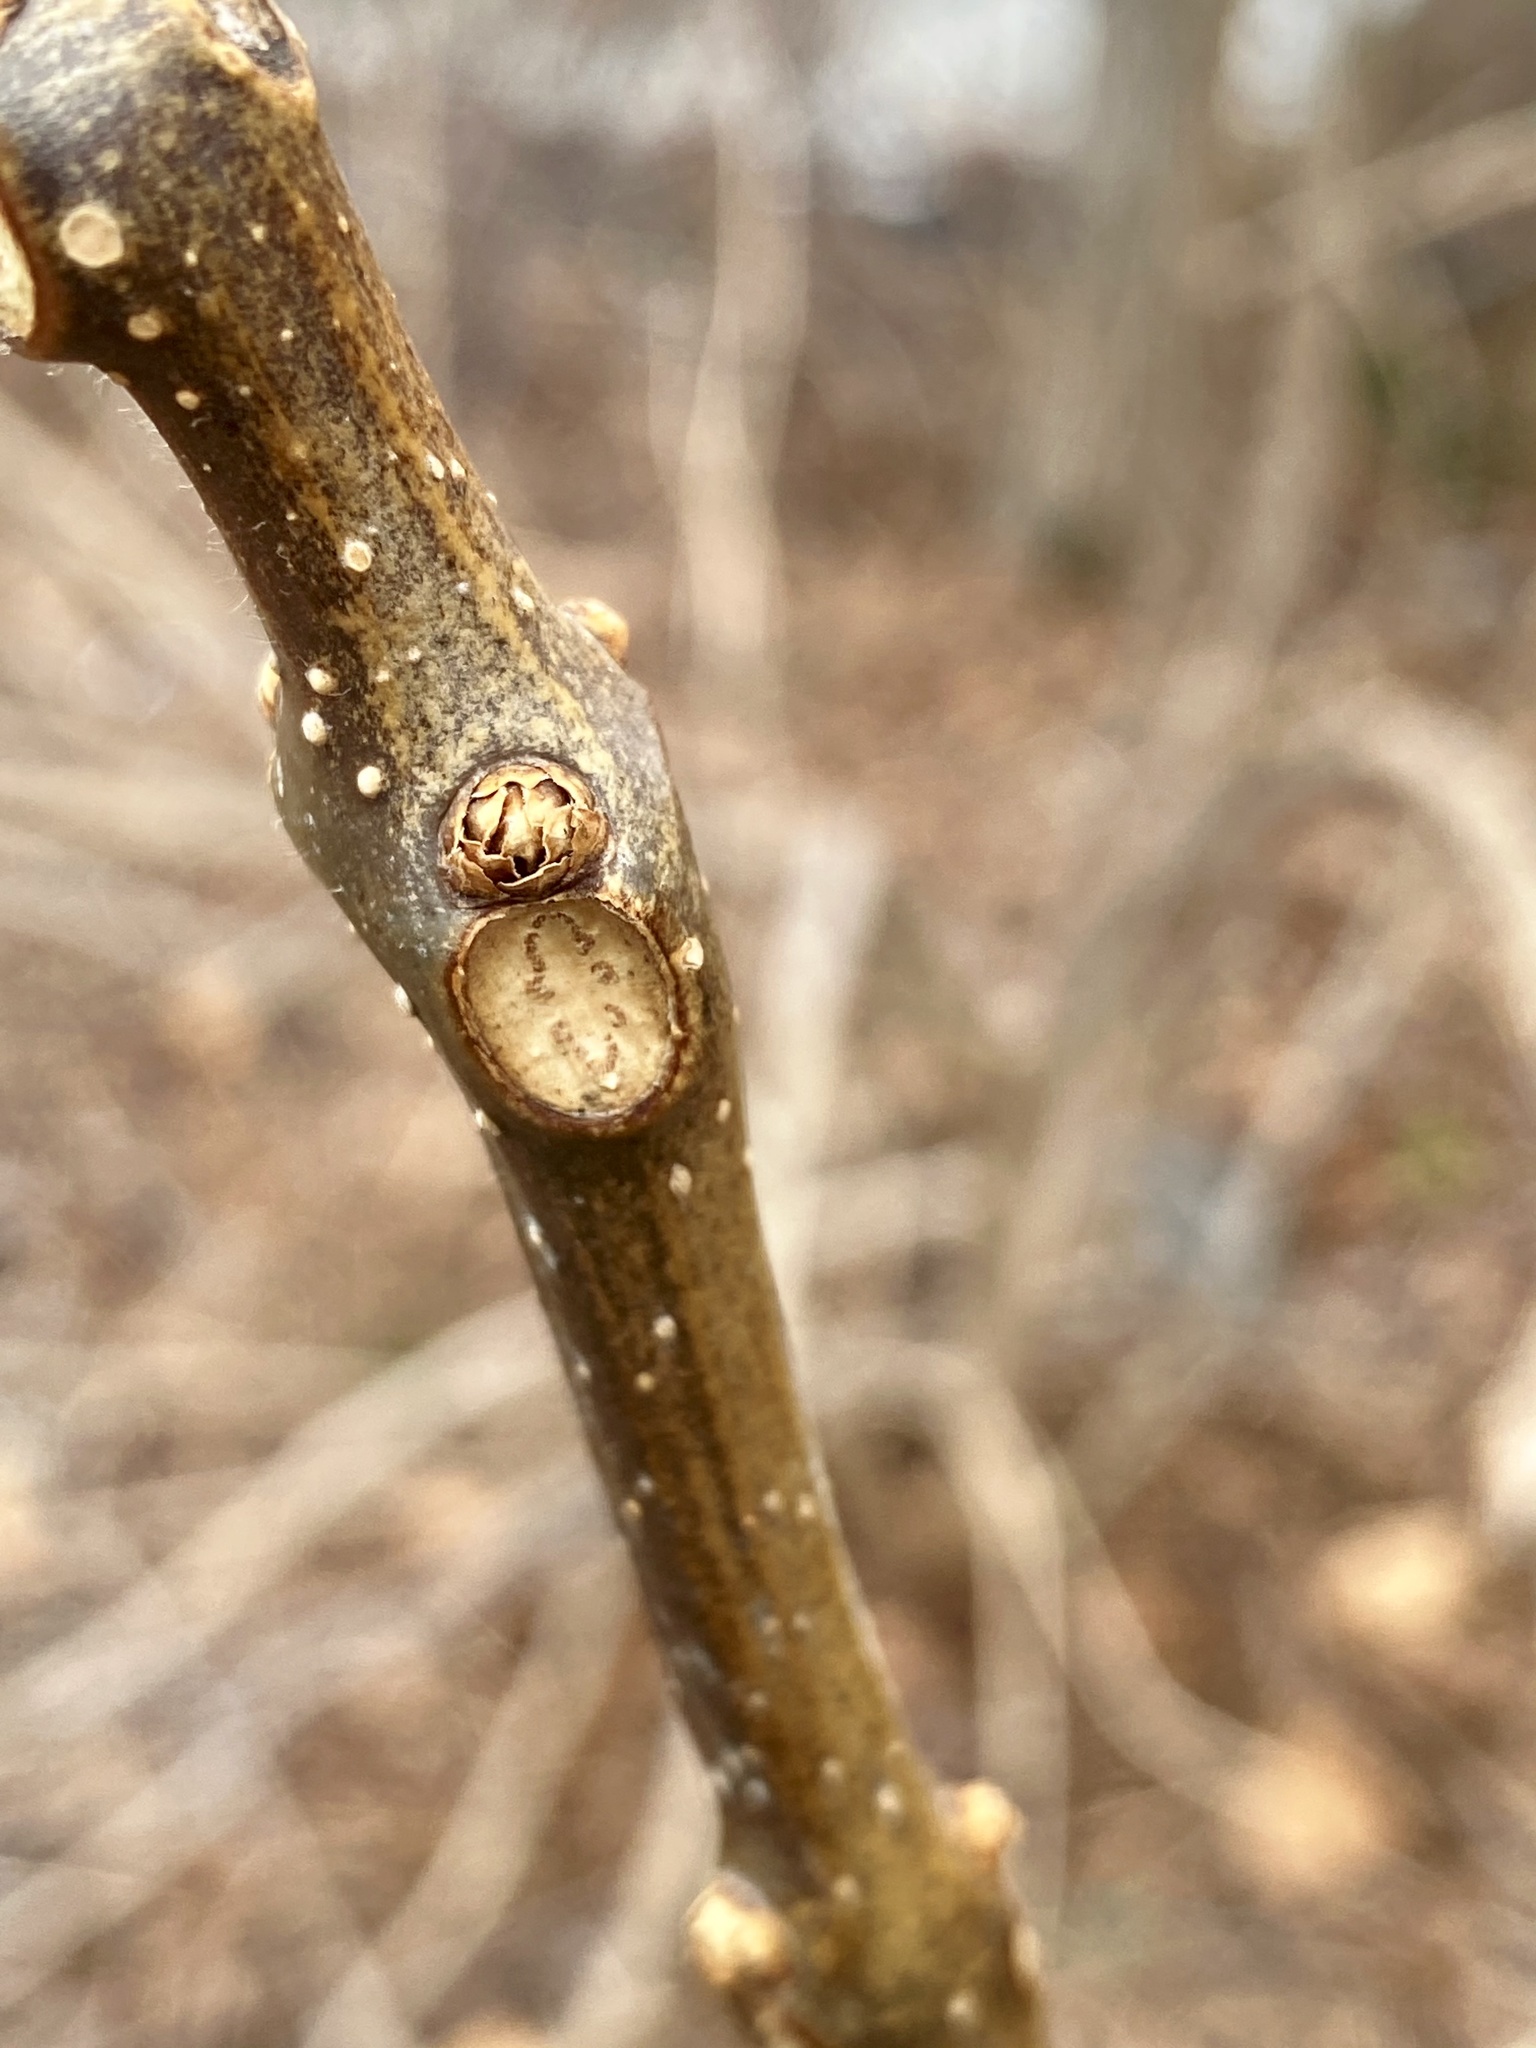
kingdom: Plantae
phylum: Tracheophyta
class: Magnoliopsida
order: Lamiales
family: Bignoniaceae
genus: Catalpa
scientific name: Catalpa
